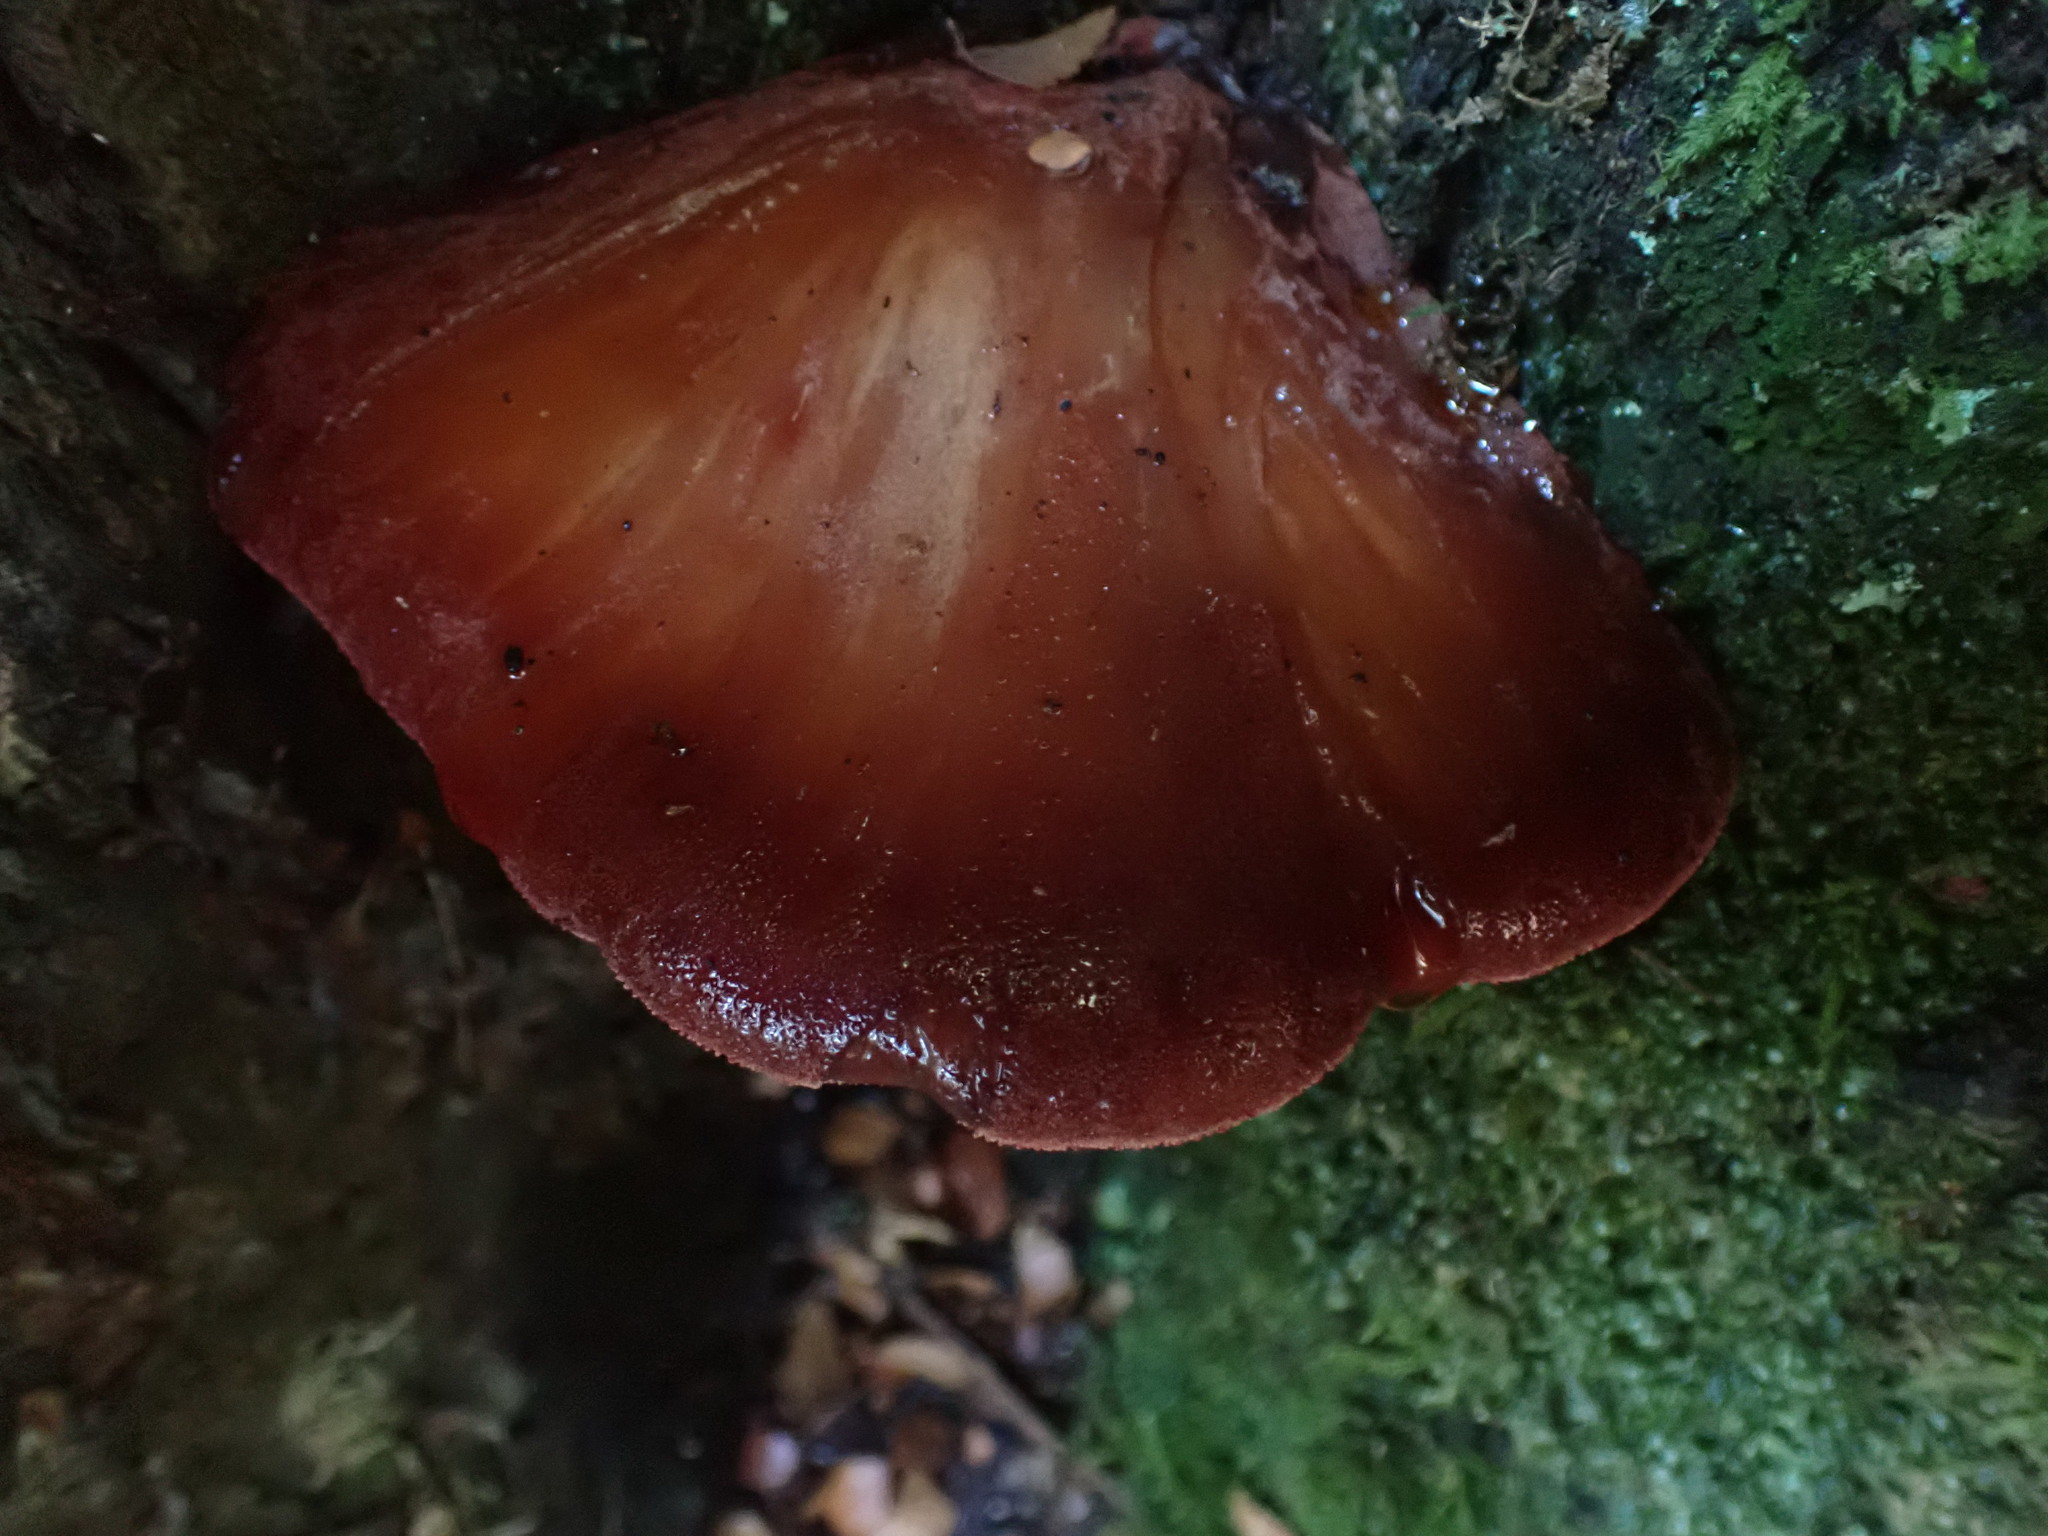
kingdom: Fungi
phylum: Basidiomycota
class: Agaricomycetes
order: Agaricales
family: Fistulinaceae
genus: Fistulina
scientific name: Fistulina spiculifera
